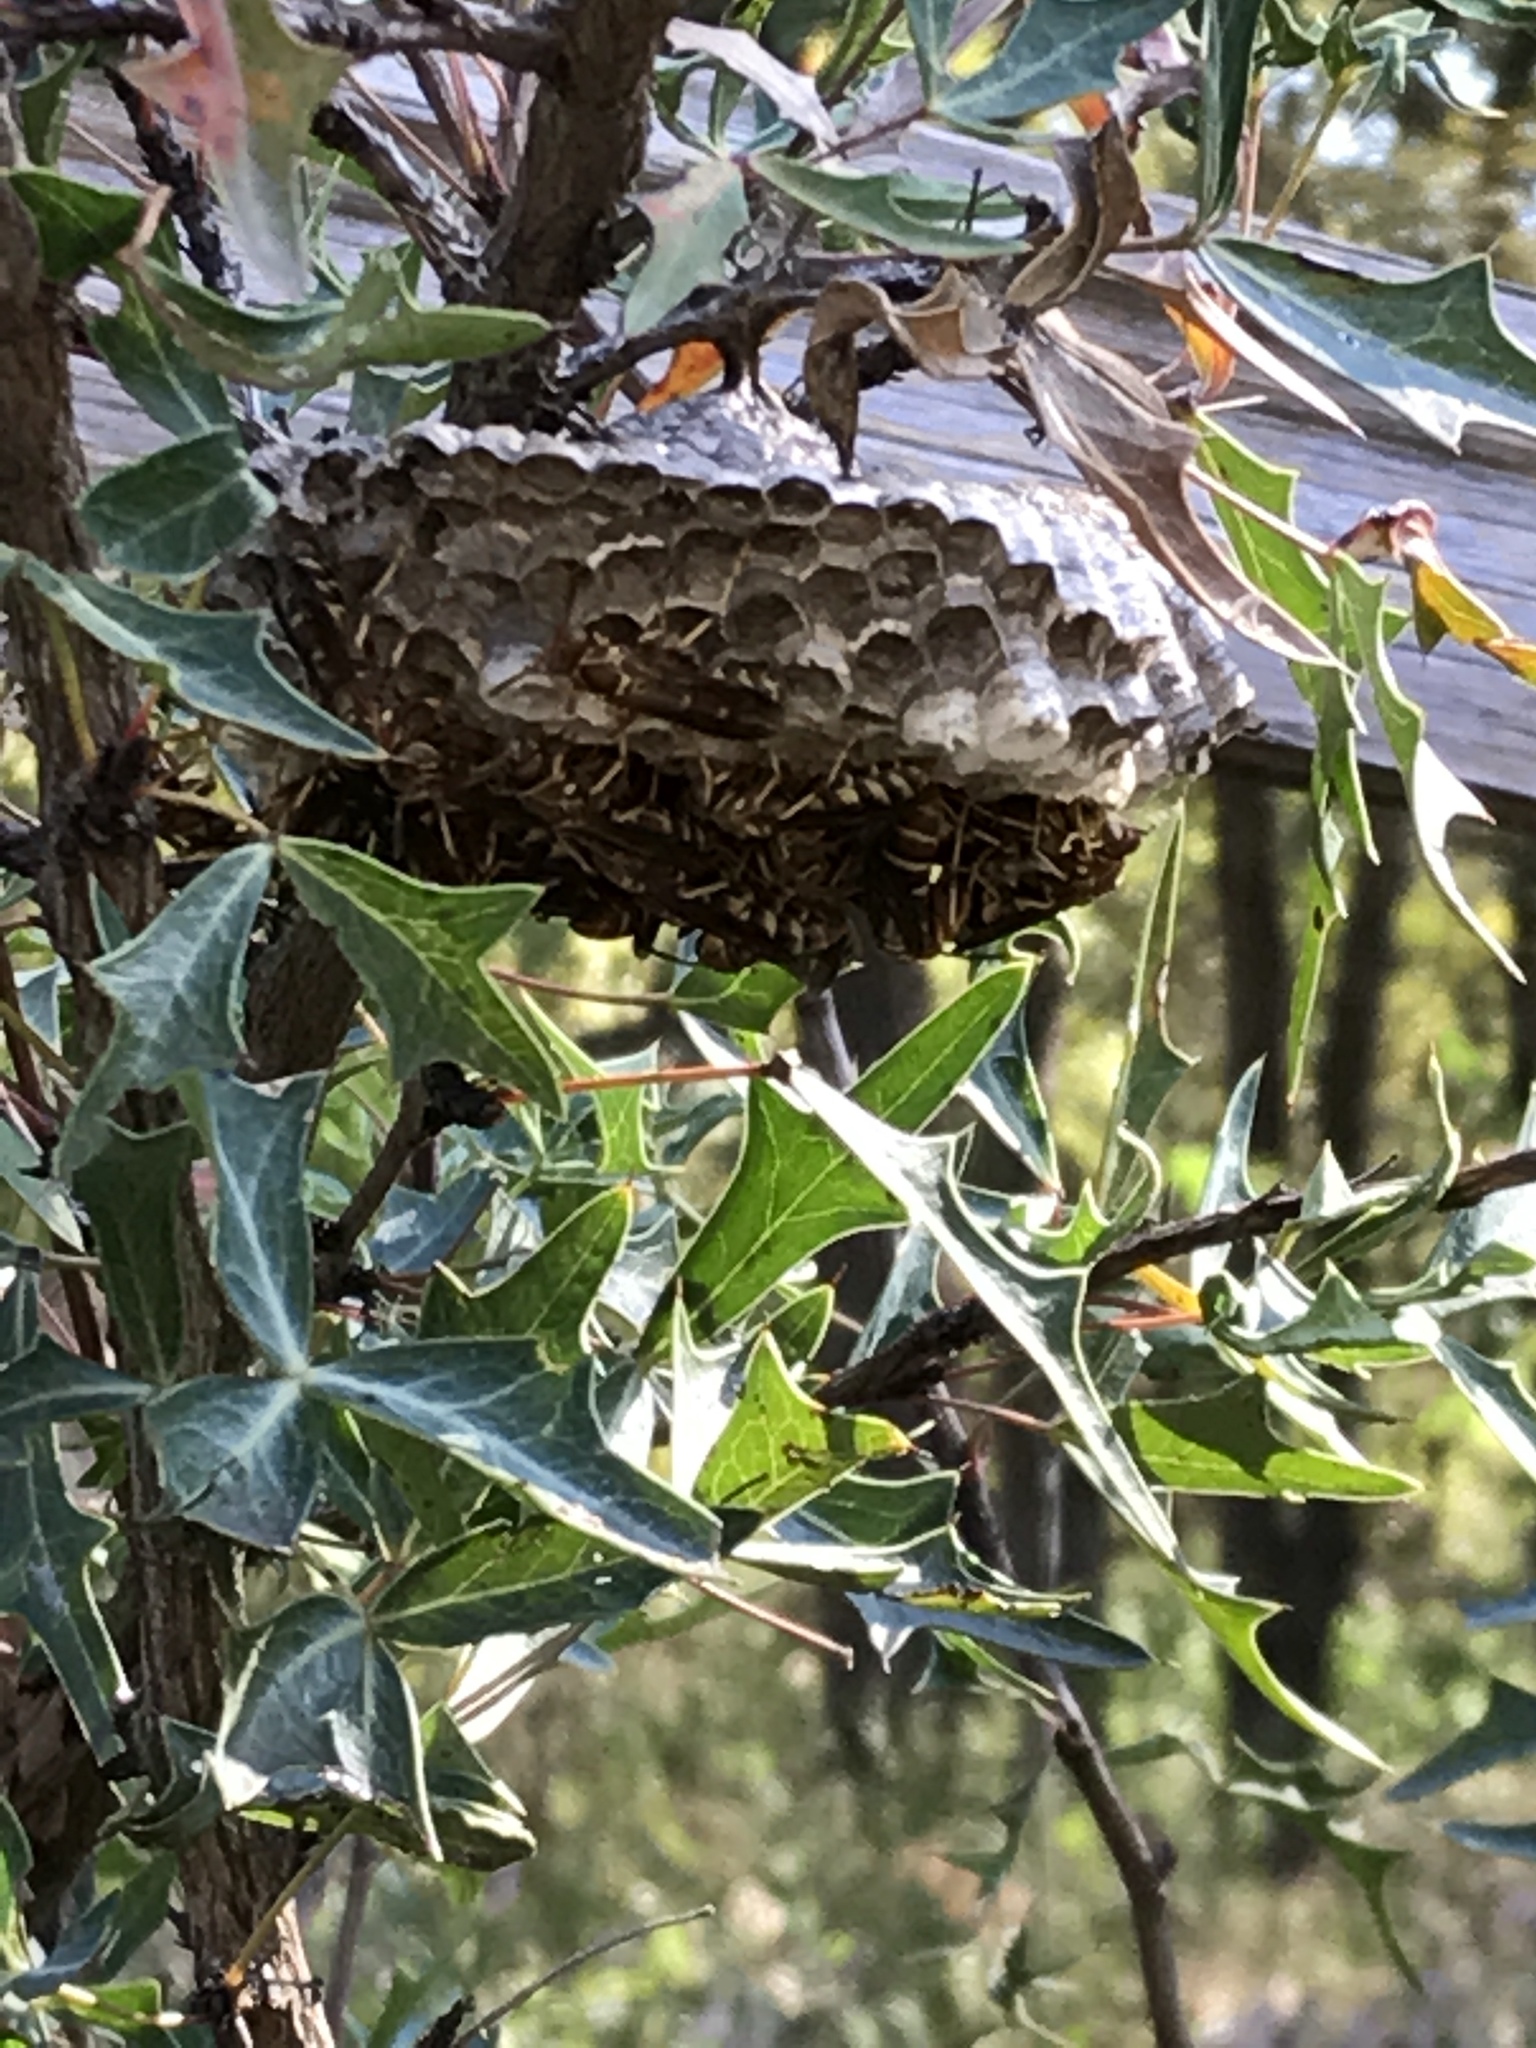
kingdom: Animalia
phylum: Arthropoda
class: Insecta
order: Hymenoptera
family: Vespidae
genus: Fuscopolistes
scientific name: Fuscopolistes
